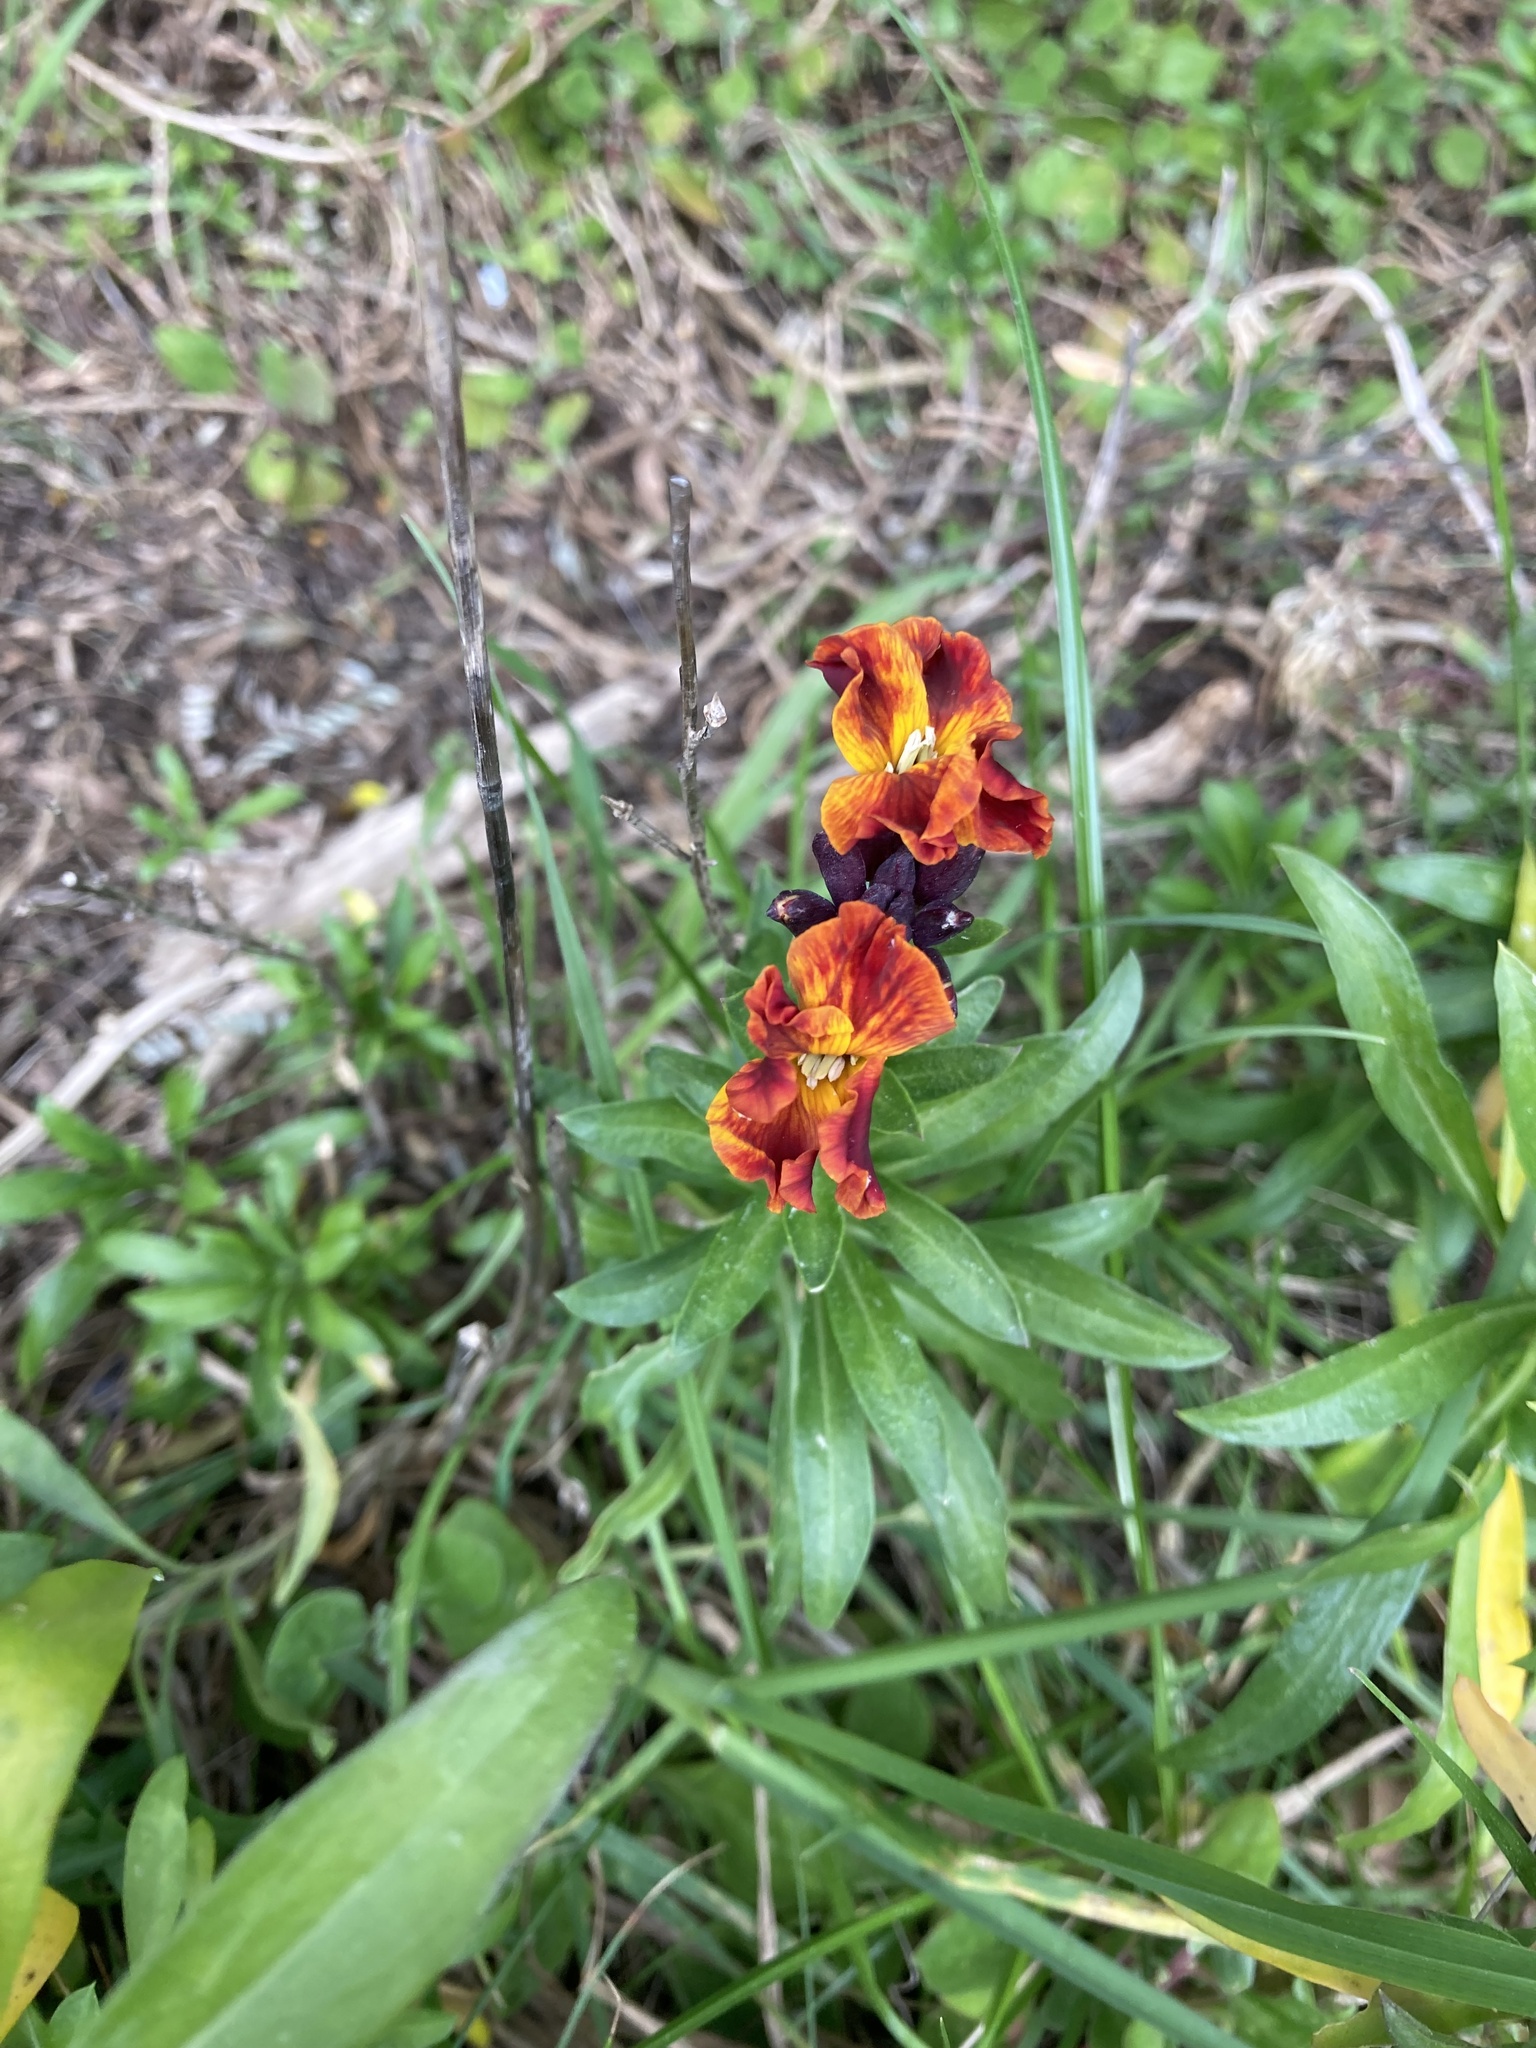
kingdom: Plantae
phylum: Tracheophyta
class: Magnoliopsida
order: Brassicales
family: Brassicaceae
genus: Erysimum
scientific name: Erysimum cheiri
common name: Wallflower
